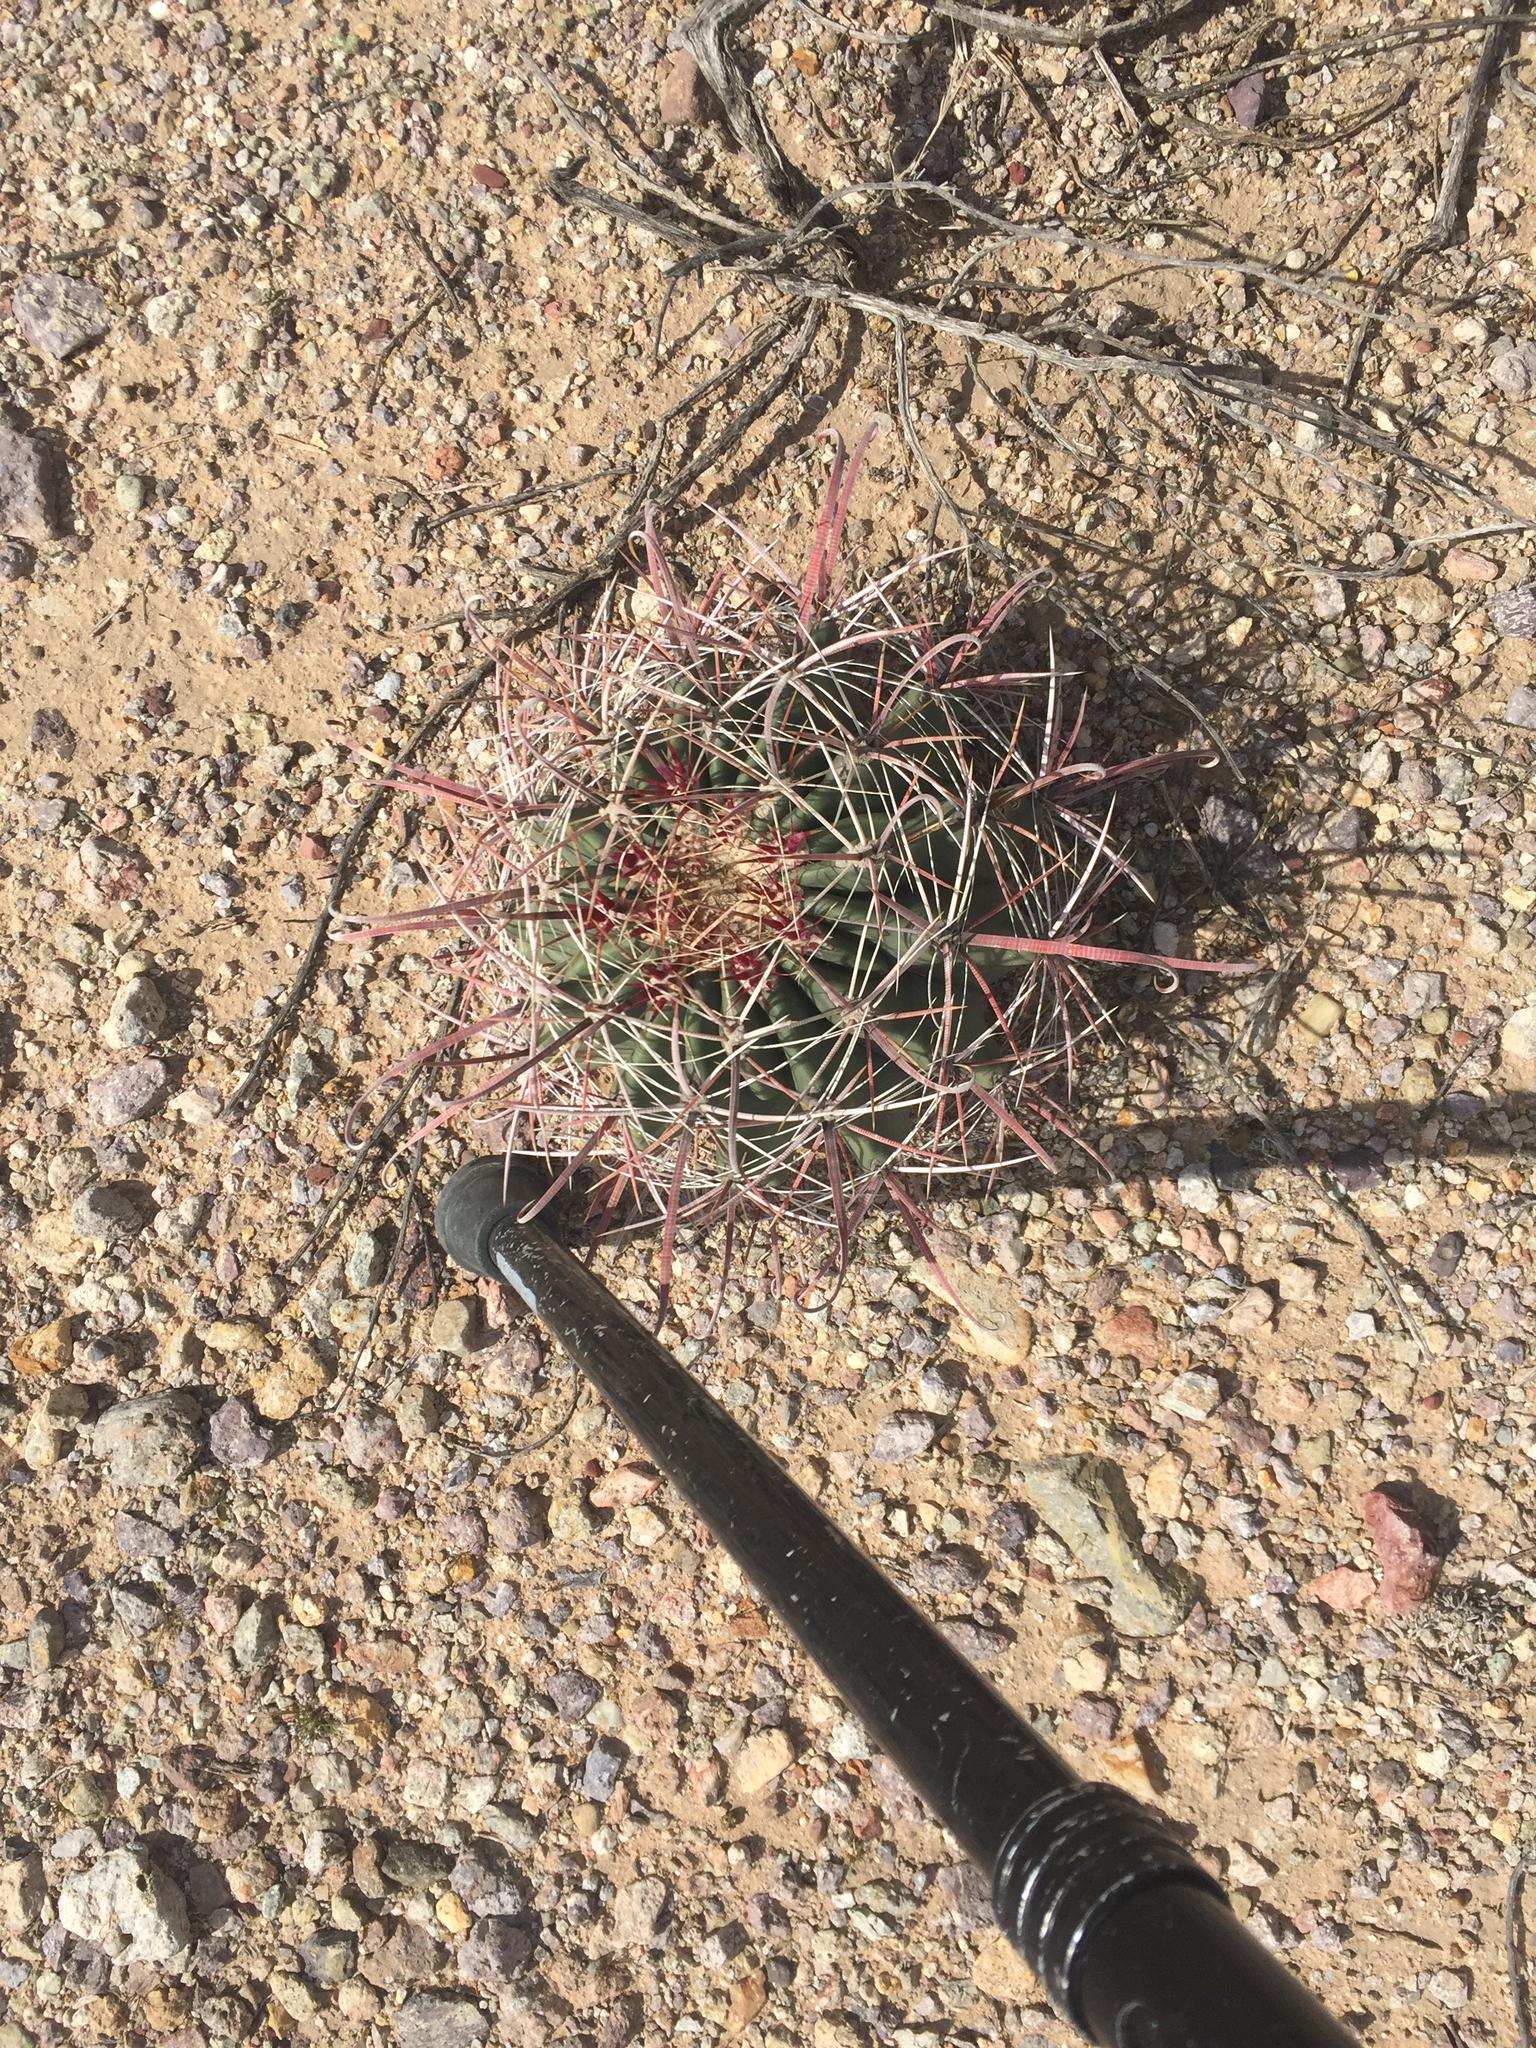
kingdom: Plantae
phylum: Tracheophyta
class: Magnoliopsida
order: Caryophyllales
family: Cactaceae
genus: Ferocactus
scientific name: Ferocactus wislizeni
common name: Candy barrel cactus
